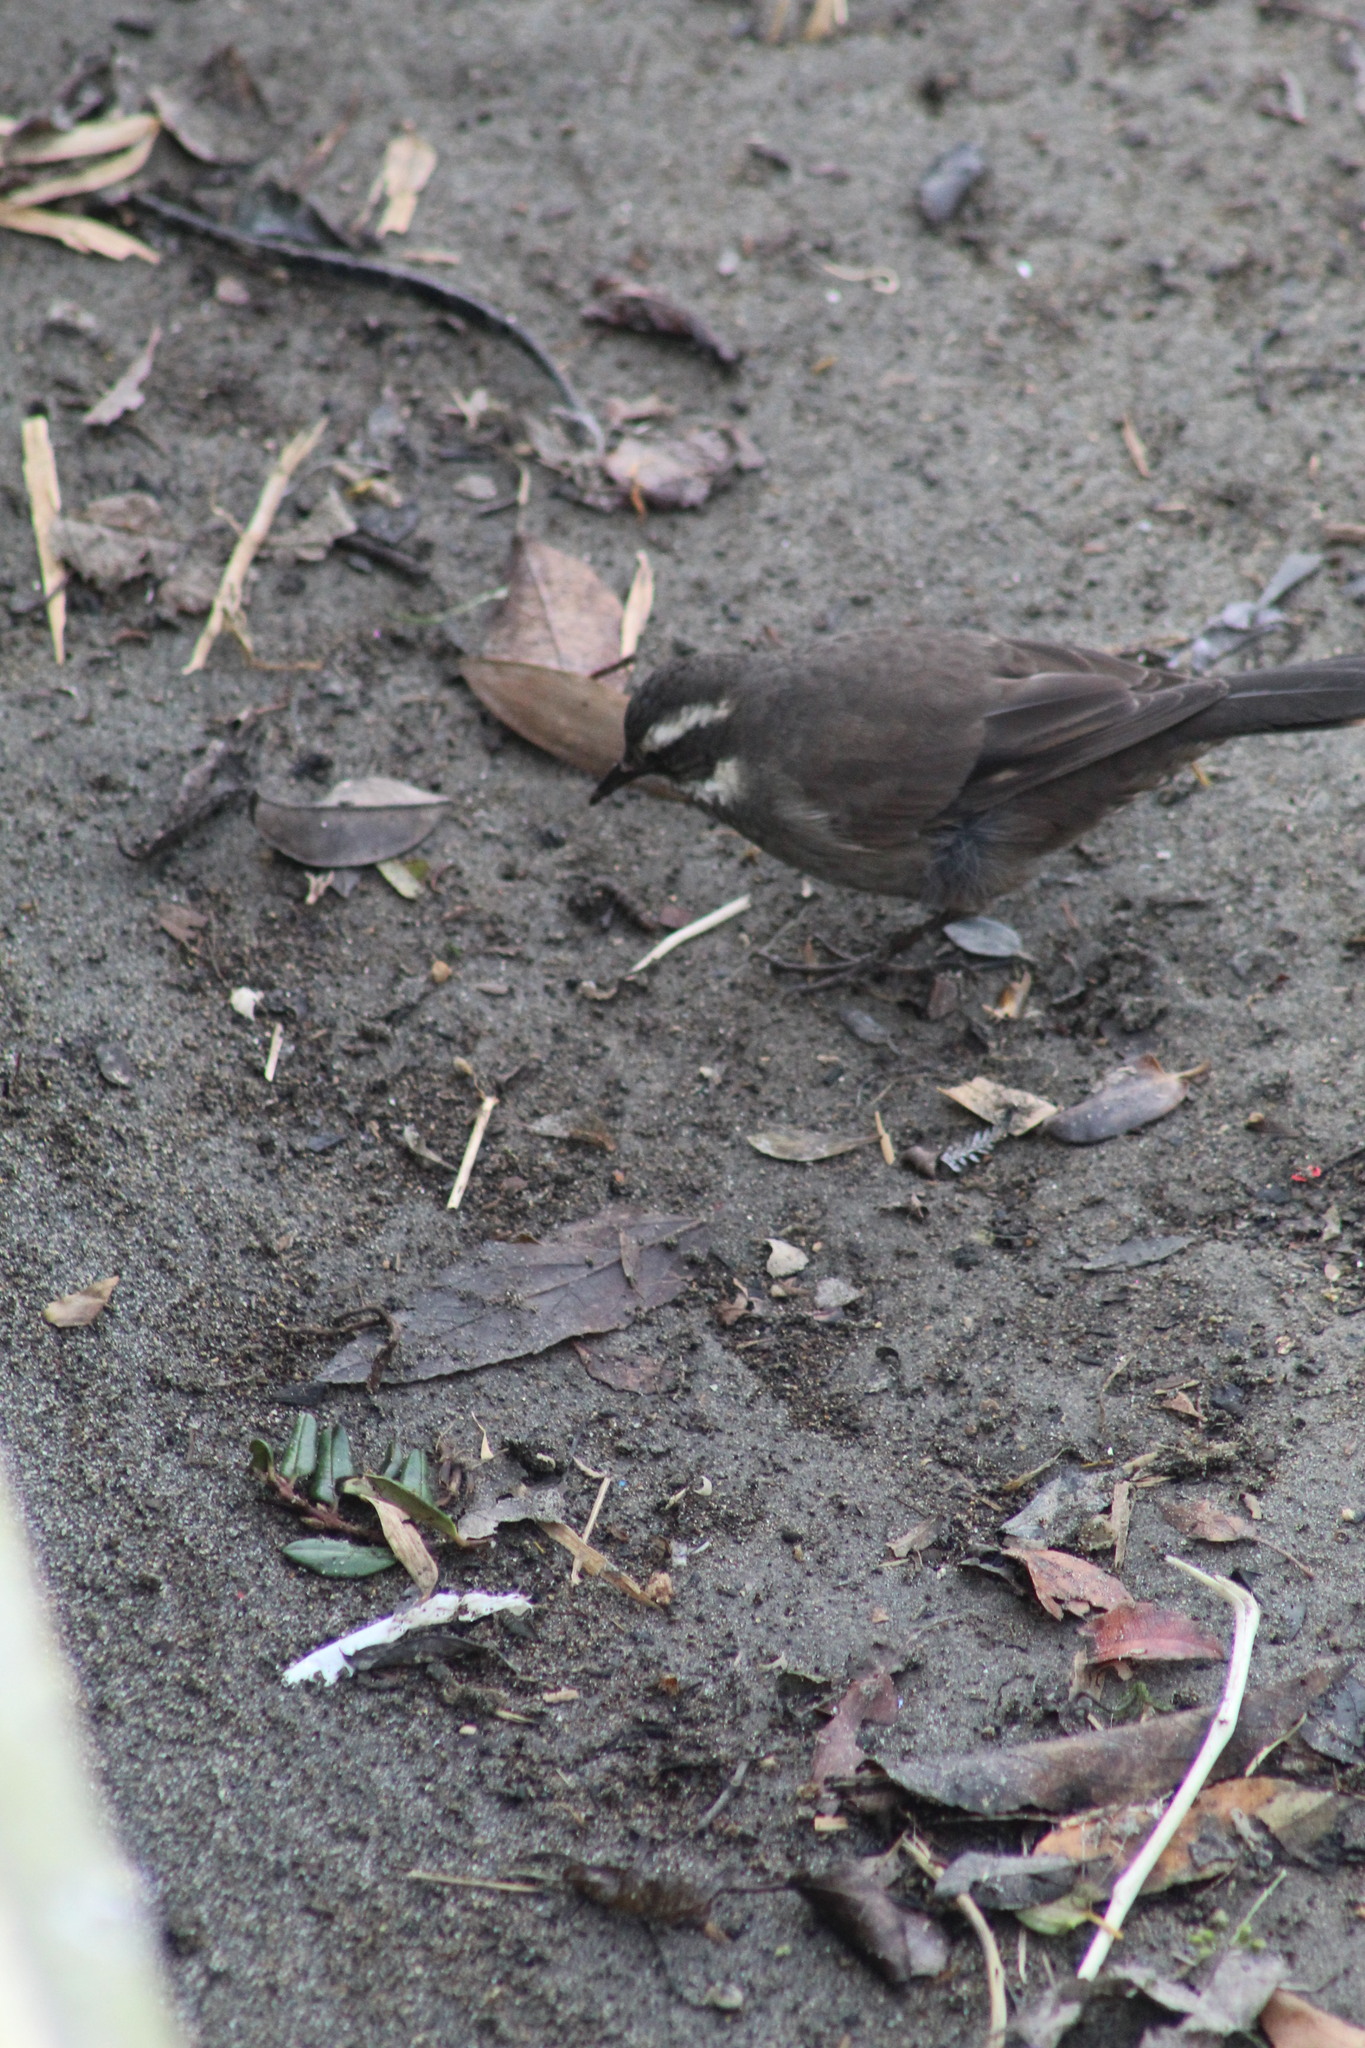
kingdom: Animalia
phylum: Chordata
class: Aves
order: Passeriformes
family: Furnariidae
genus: Cinclodes
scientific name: Cinclodes patagonicus
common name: Dark-bellied cinclodes
